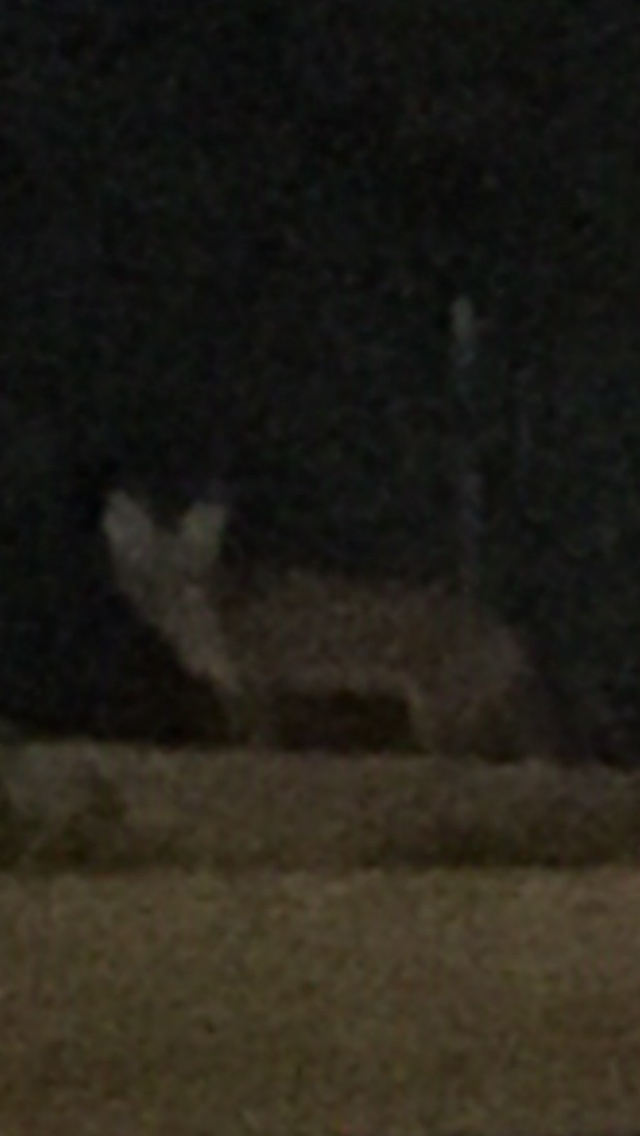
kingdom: Animalia
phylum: Chordata
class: Mammalia
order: Carnivora
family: Canidae
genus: Vulpes
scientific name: Vulpes vulpes
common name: Red fox
